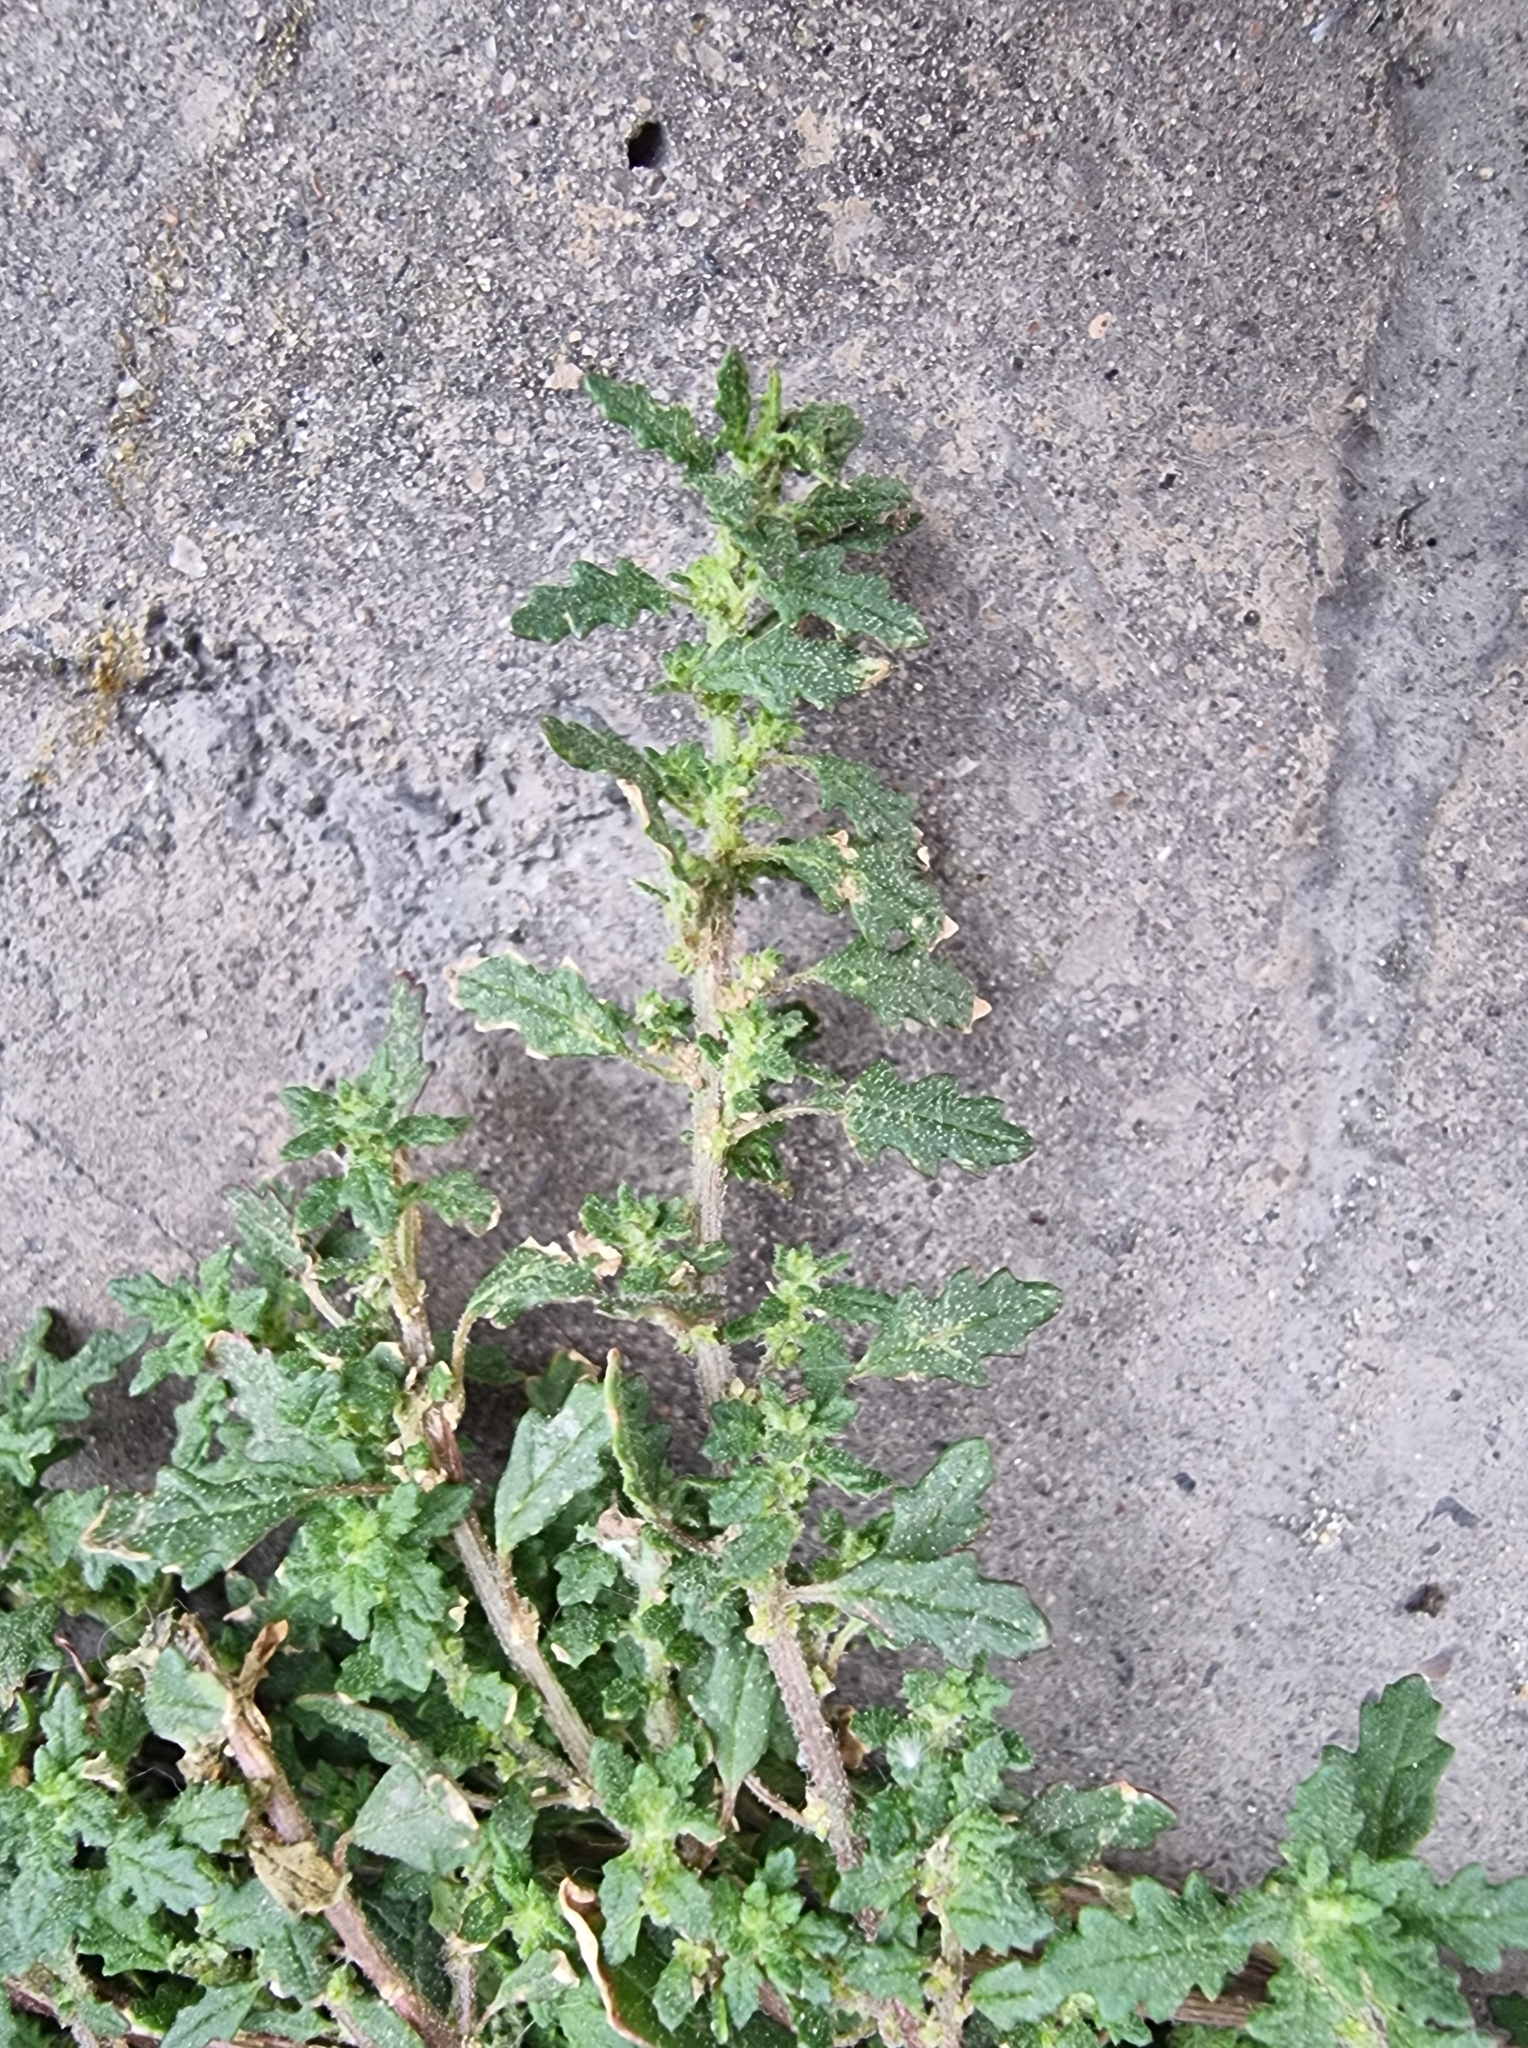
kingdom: Plantae
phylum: Tracheophyta
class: Magnoliopsida
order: Caryophyllales
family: Amaranthaceae
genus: Dysphania
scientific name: Dysphania pumilio
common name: Clammy goosefoot
